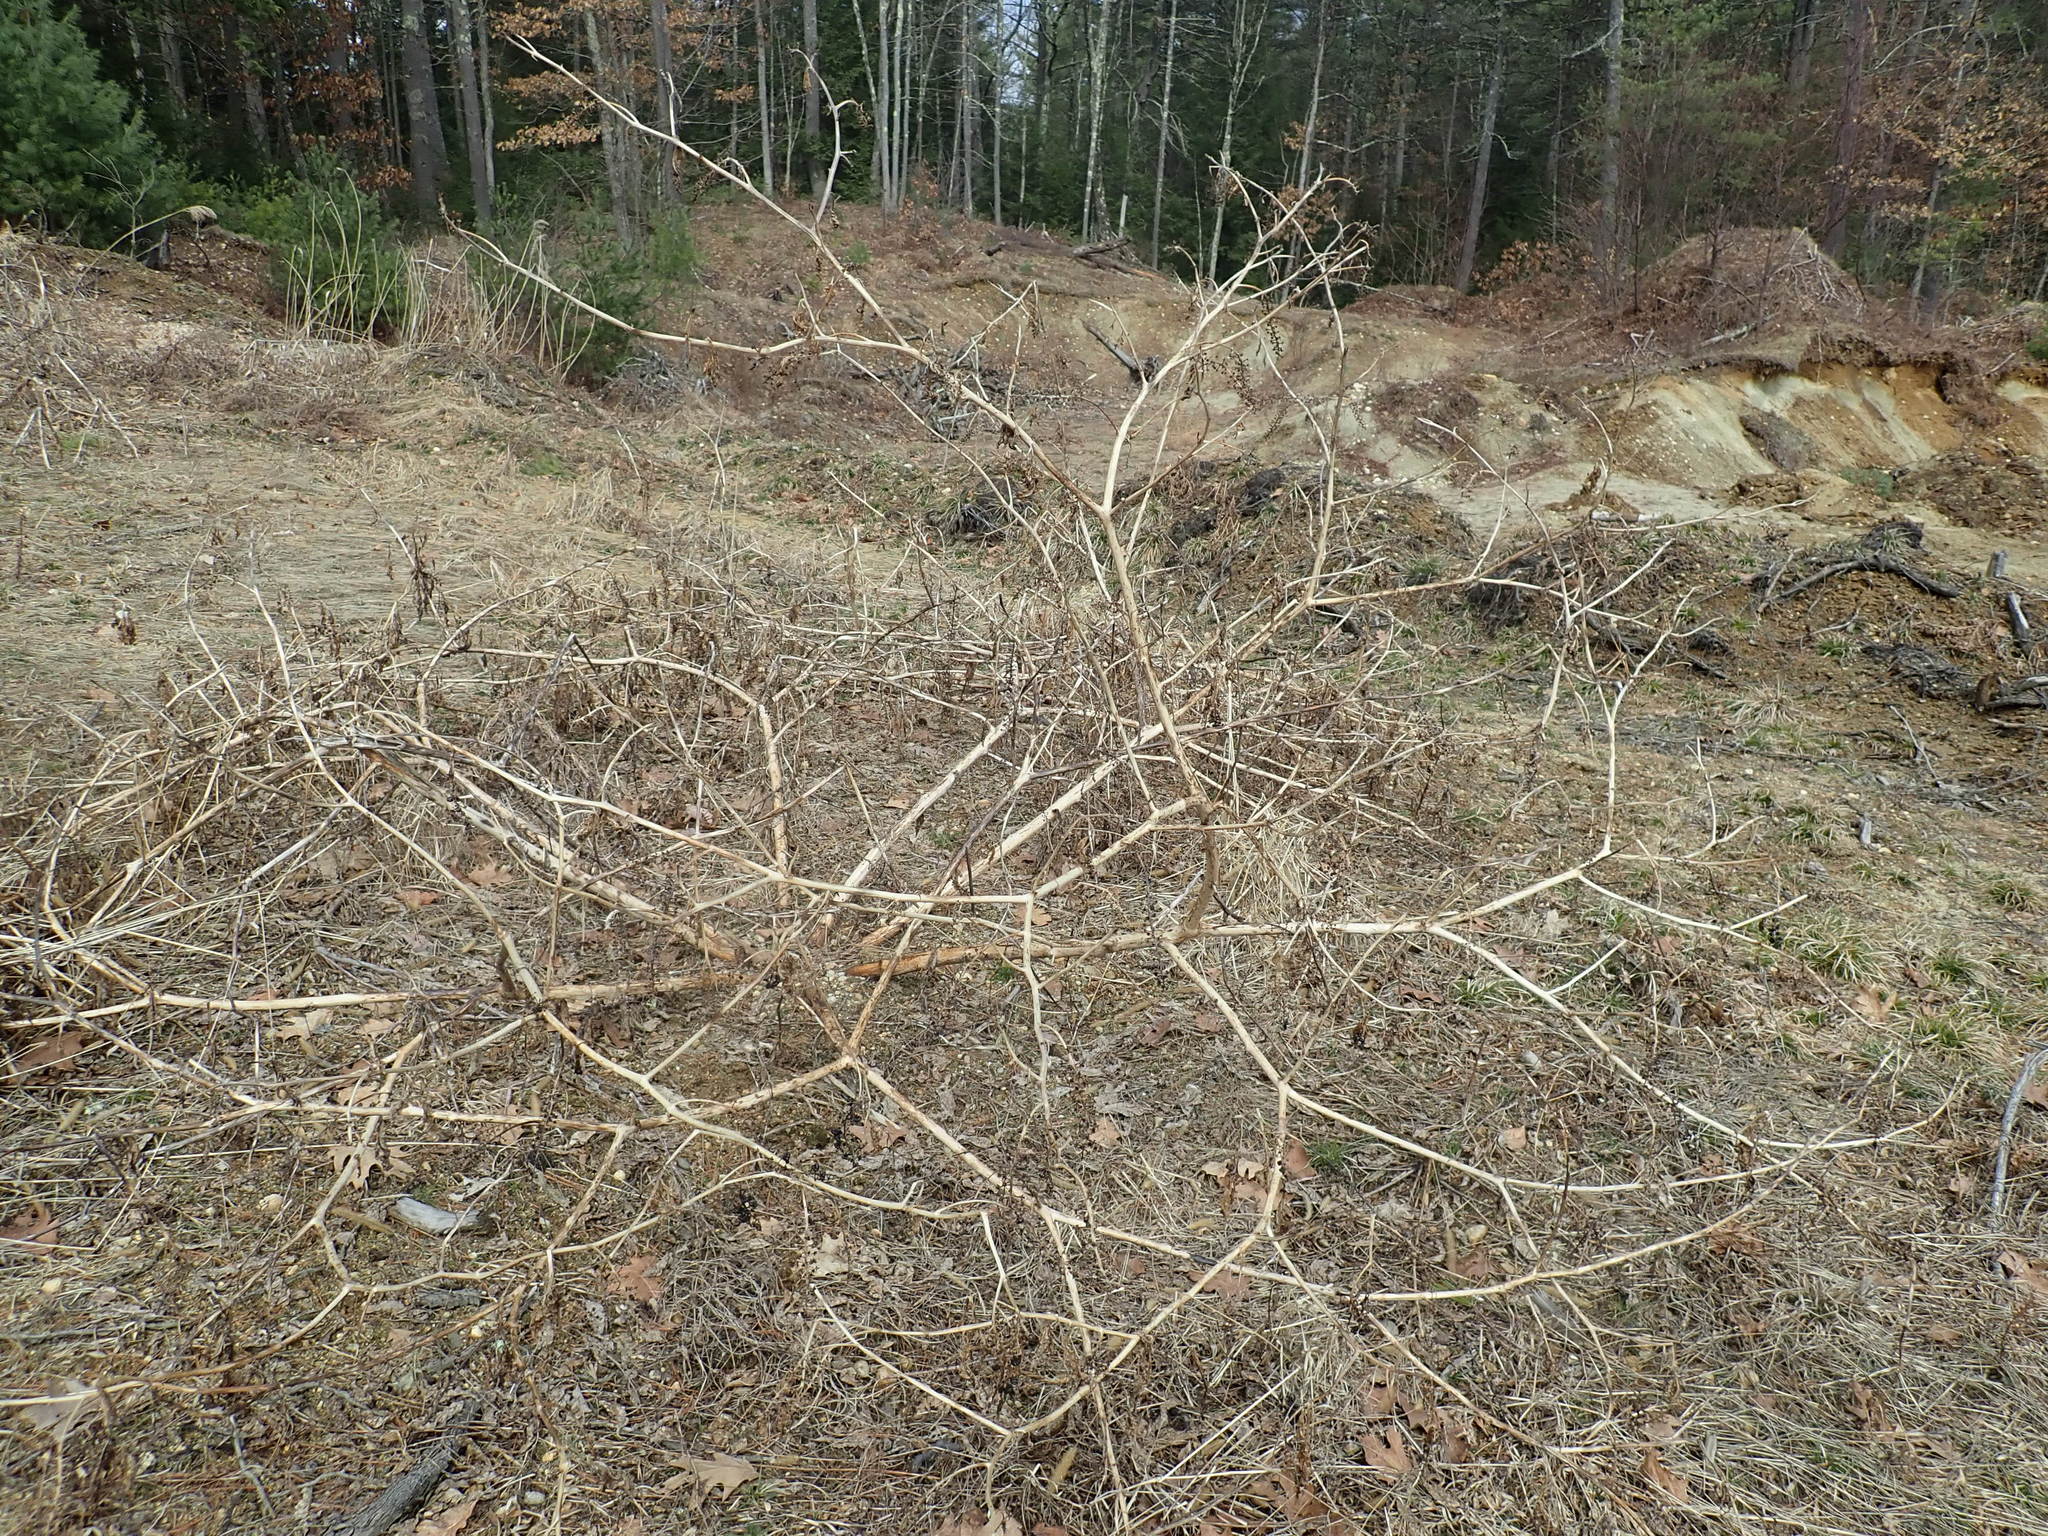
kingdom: Plantae
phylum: Tracheophyta
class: Magnoliopsida
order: Caryophyllales
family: Phytolaccaceae
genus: Phytolacca
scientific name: Phytolacca americana
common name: American pokeweed
